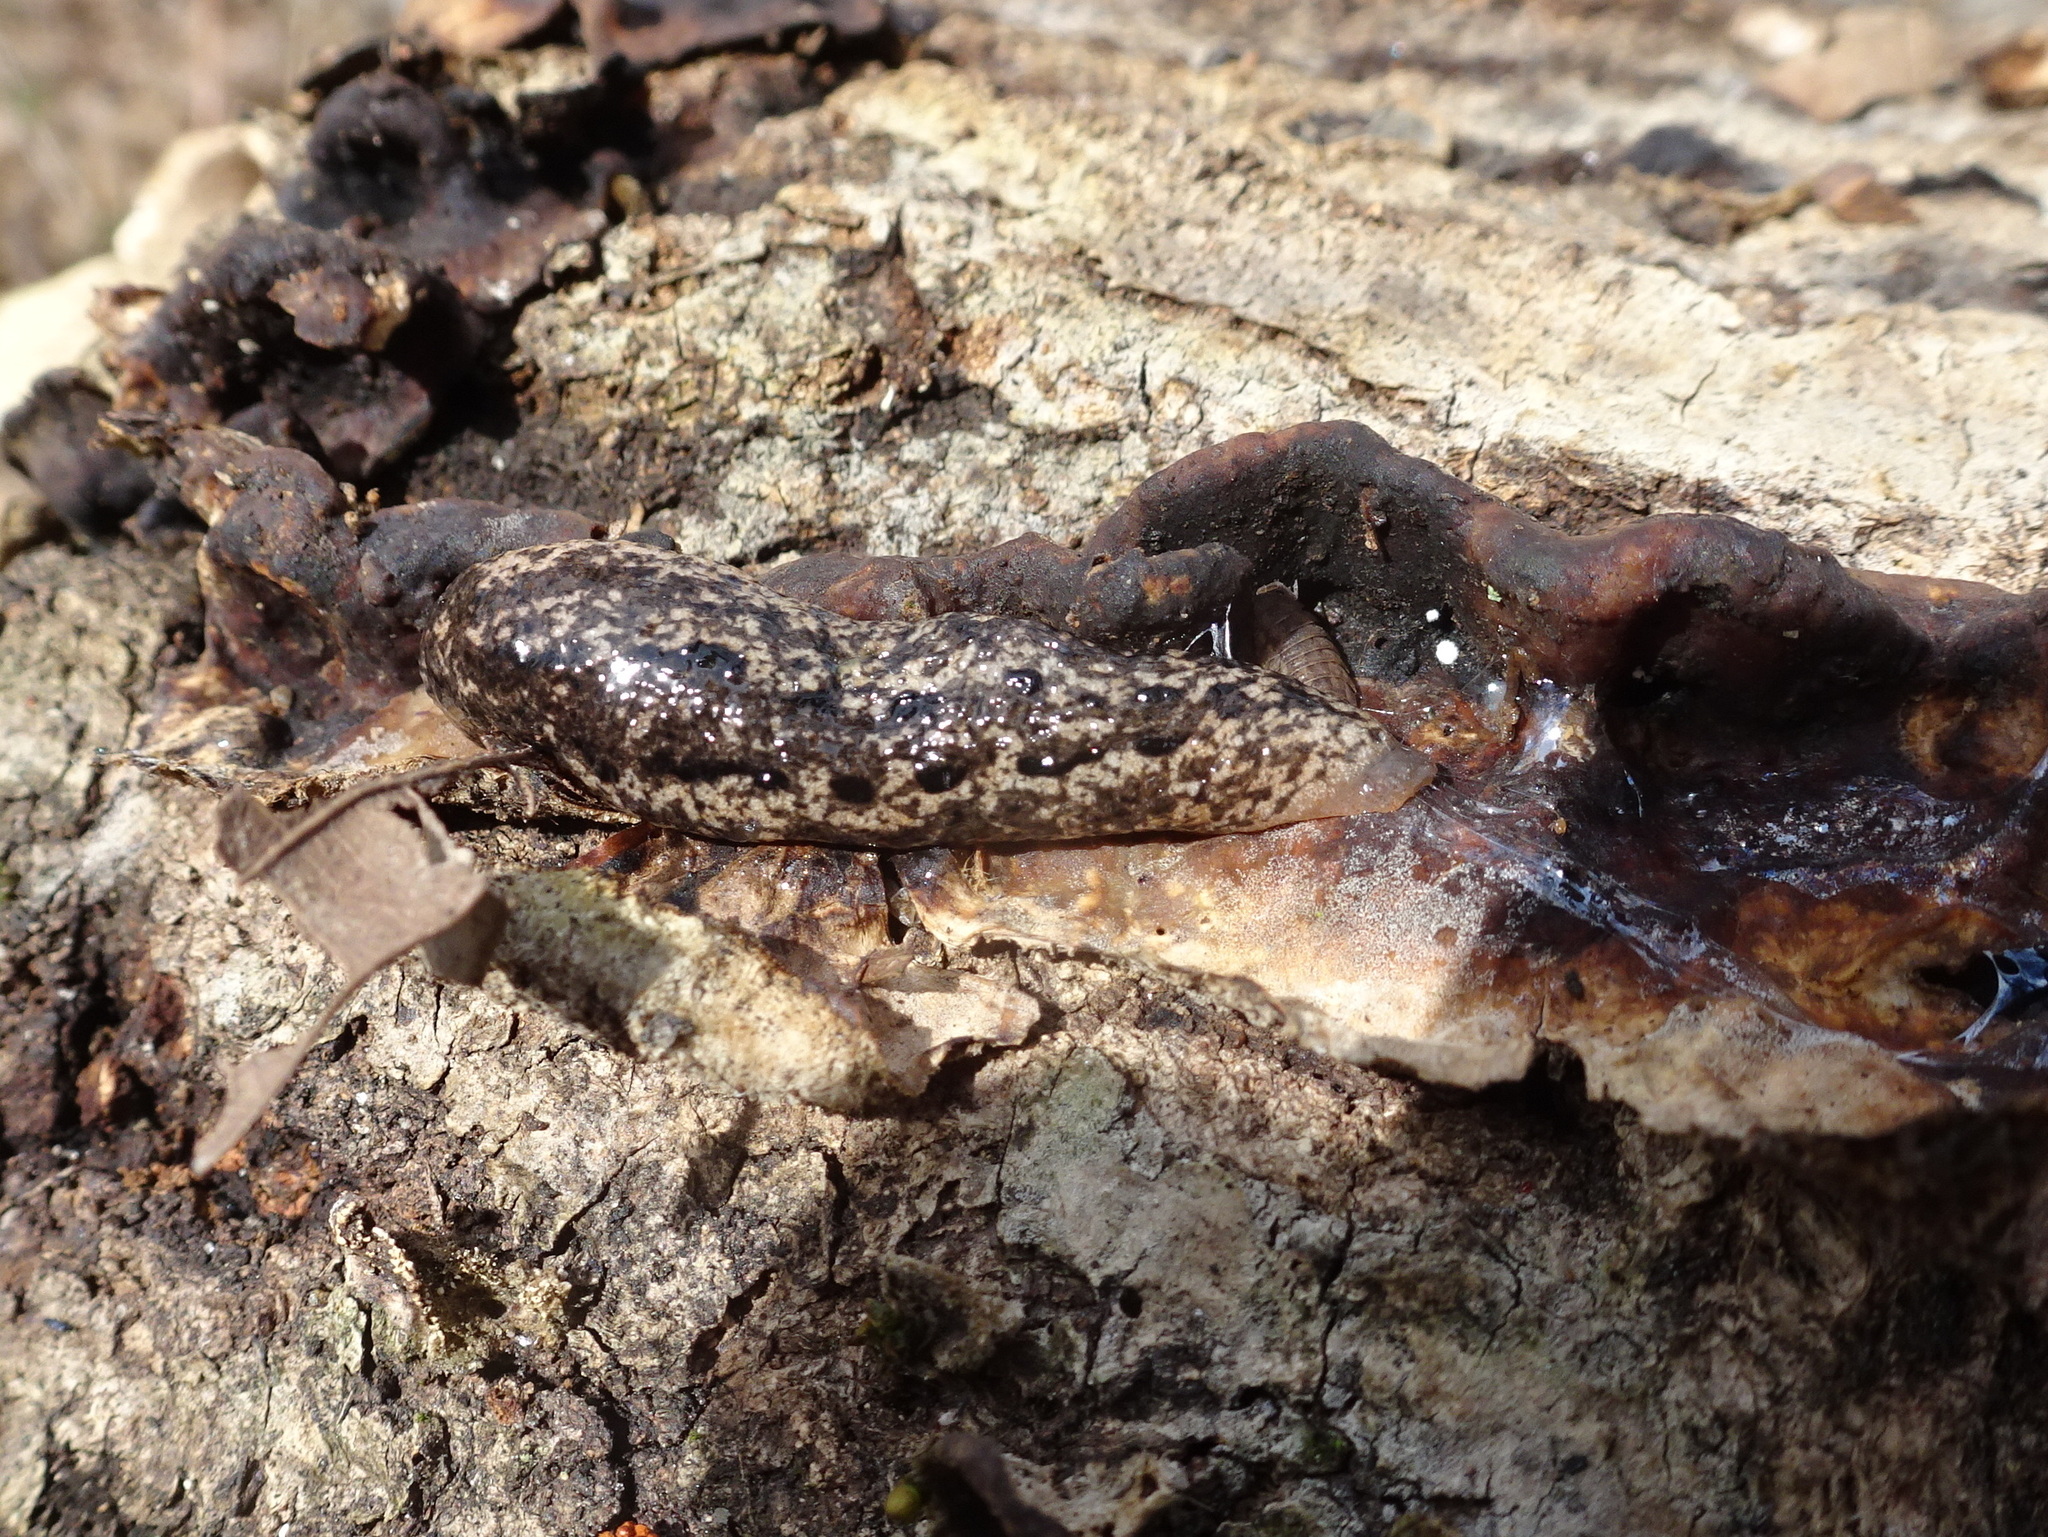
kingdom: Animalia
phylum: Mollusca
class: Gastropoda
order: Stylommatophora
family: Philomycidae
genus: Philomycus
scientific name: Philomycus carolinianus
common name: Carolina mantleslug
